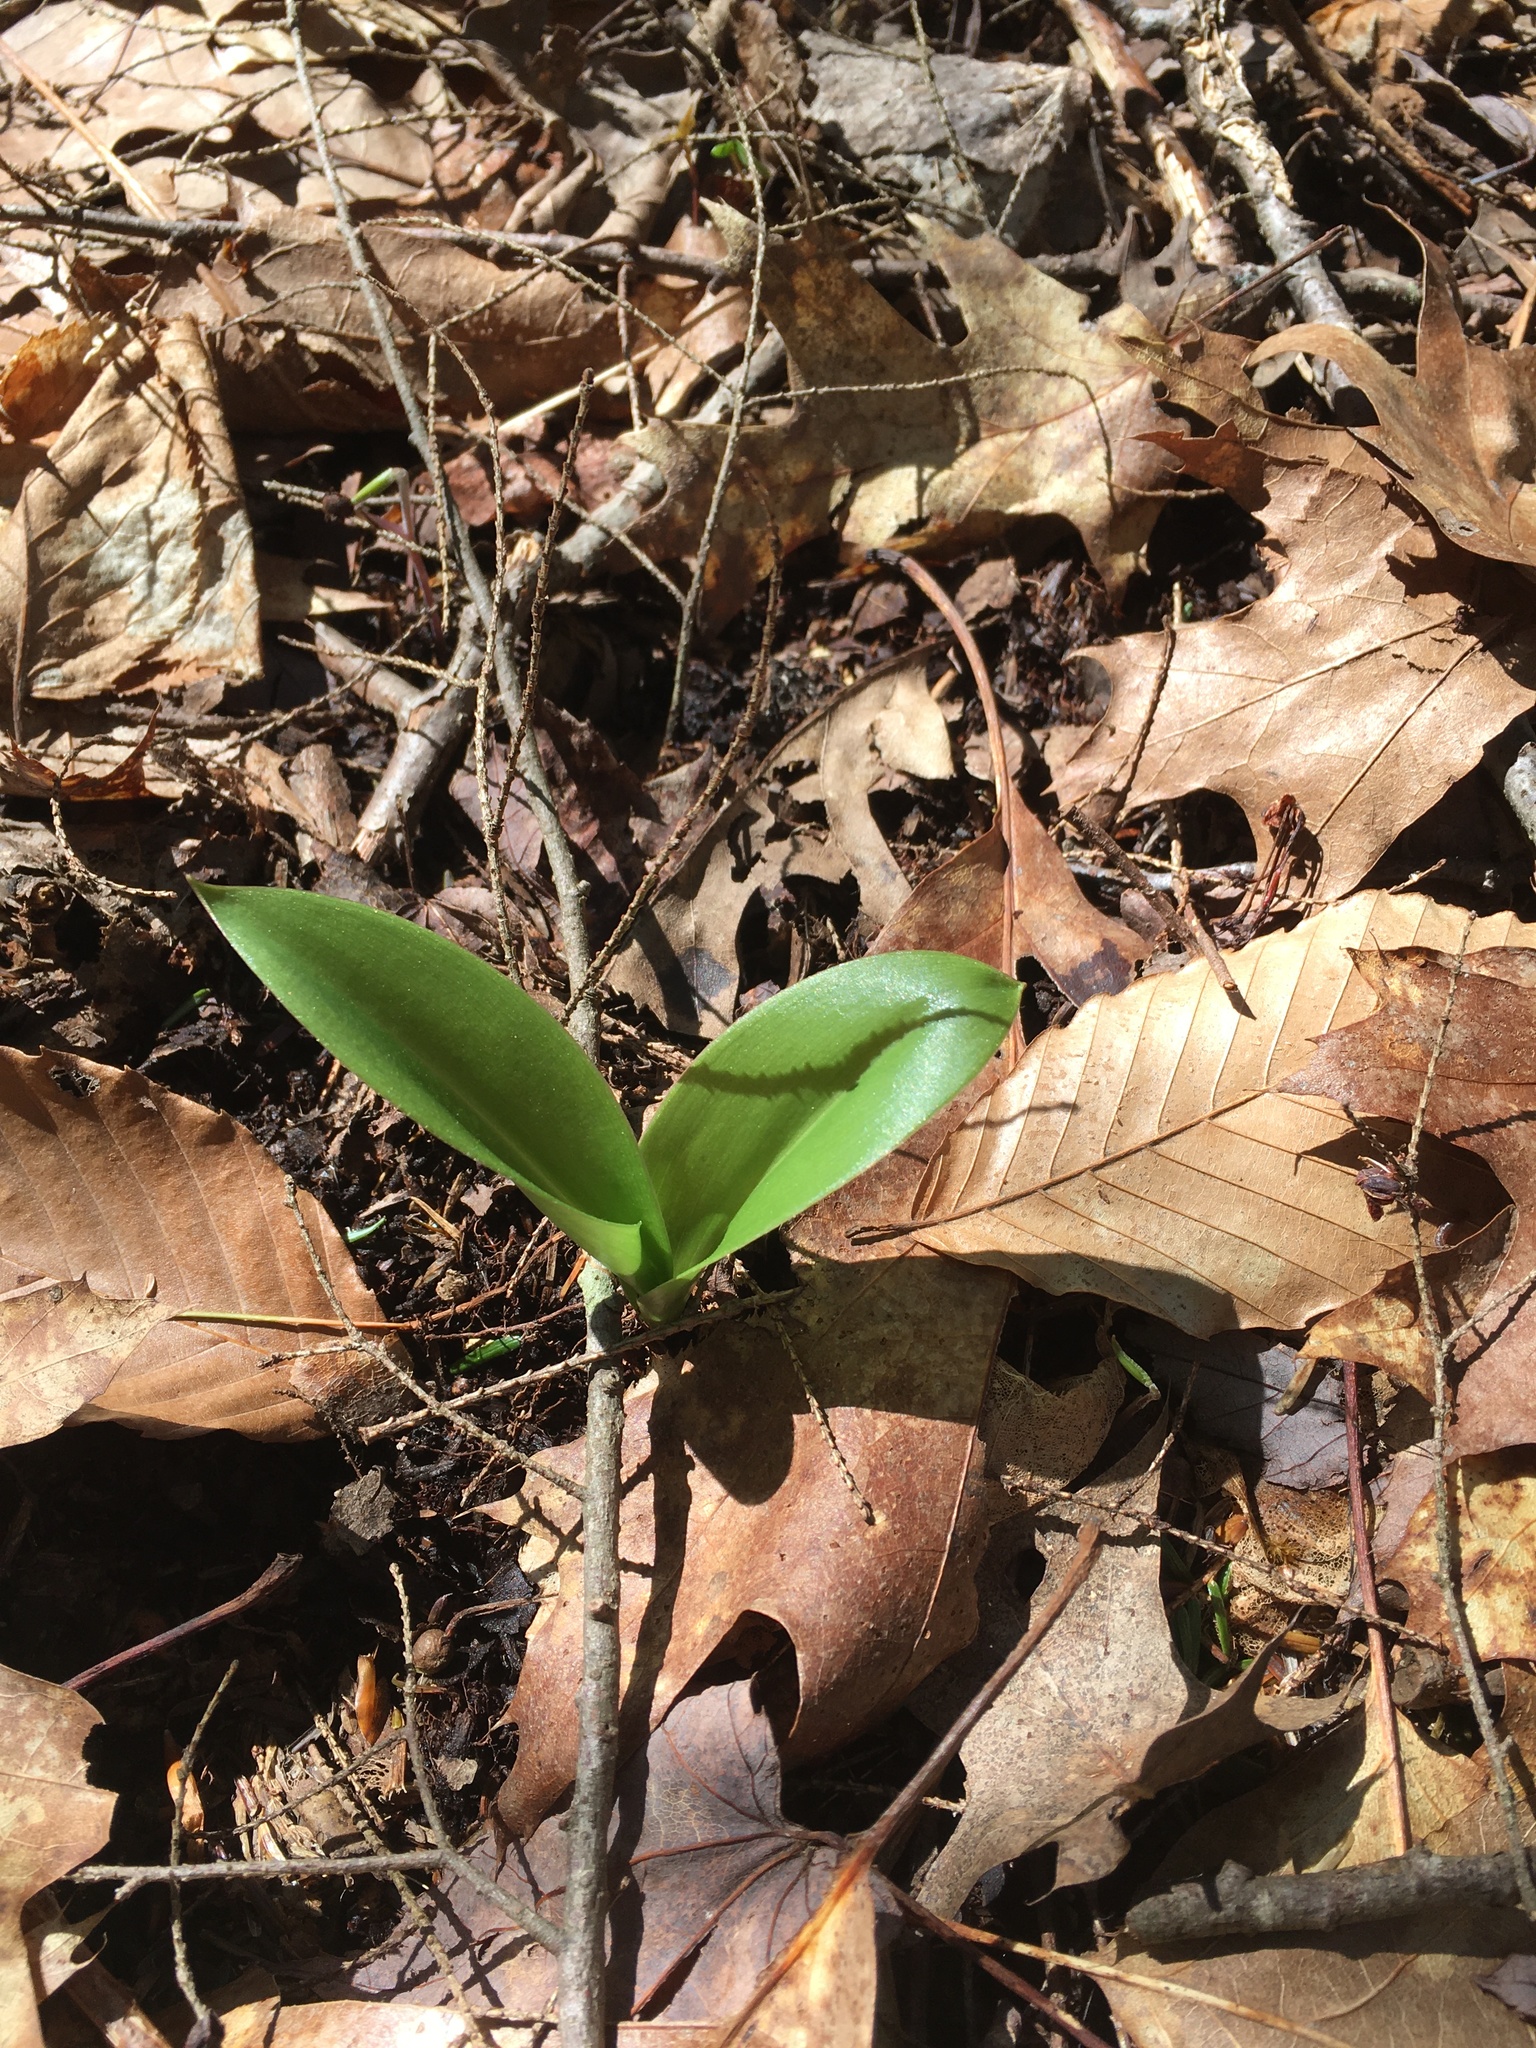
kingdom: Plantae
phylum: Tracheophyta
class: Liliopsida
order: Liliales
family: Liliaceae
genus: Clintonia
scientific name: Clintonia borealis
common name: Yellow clintonia
